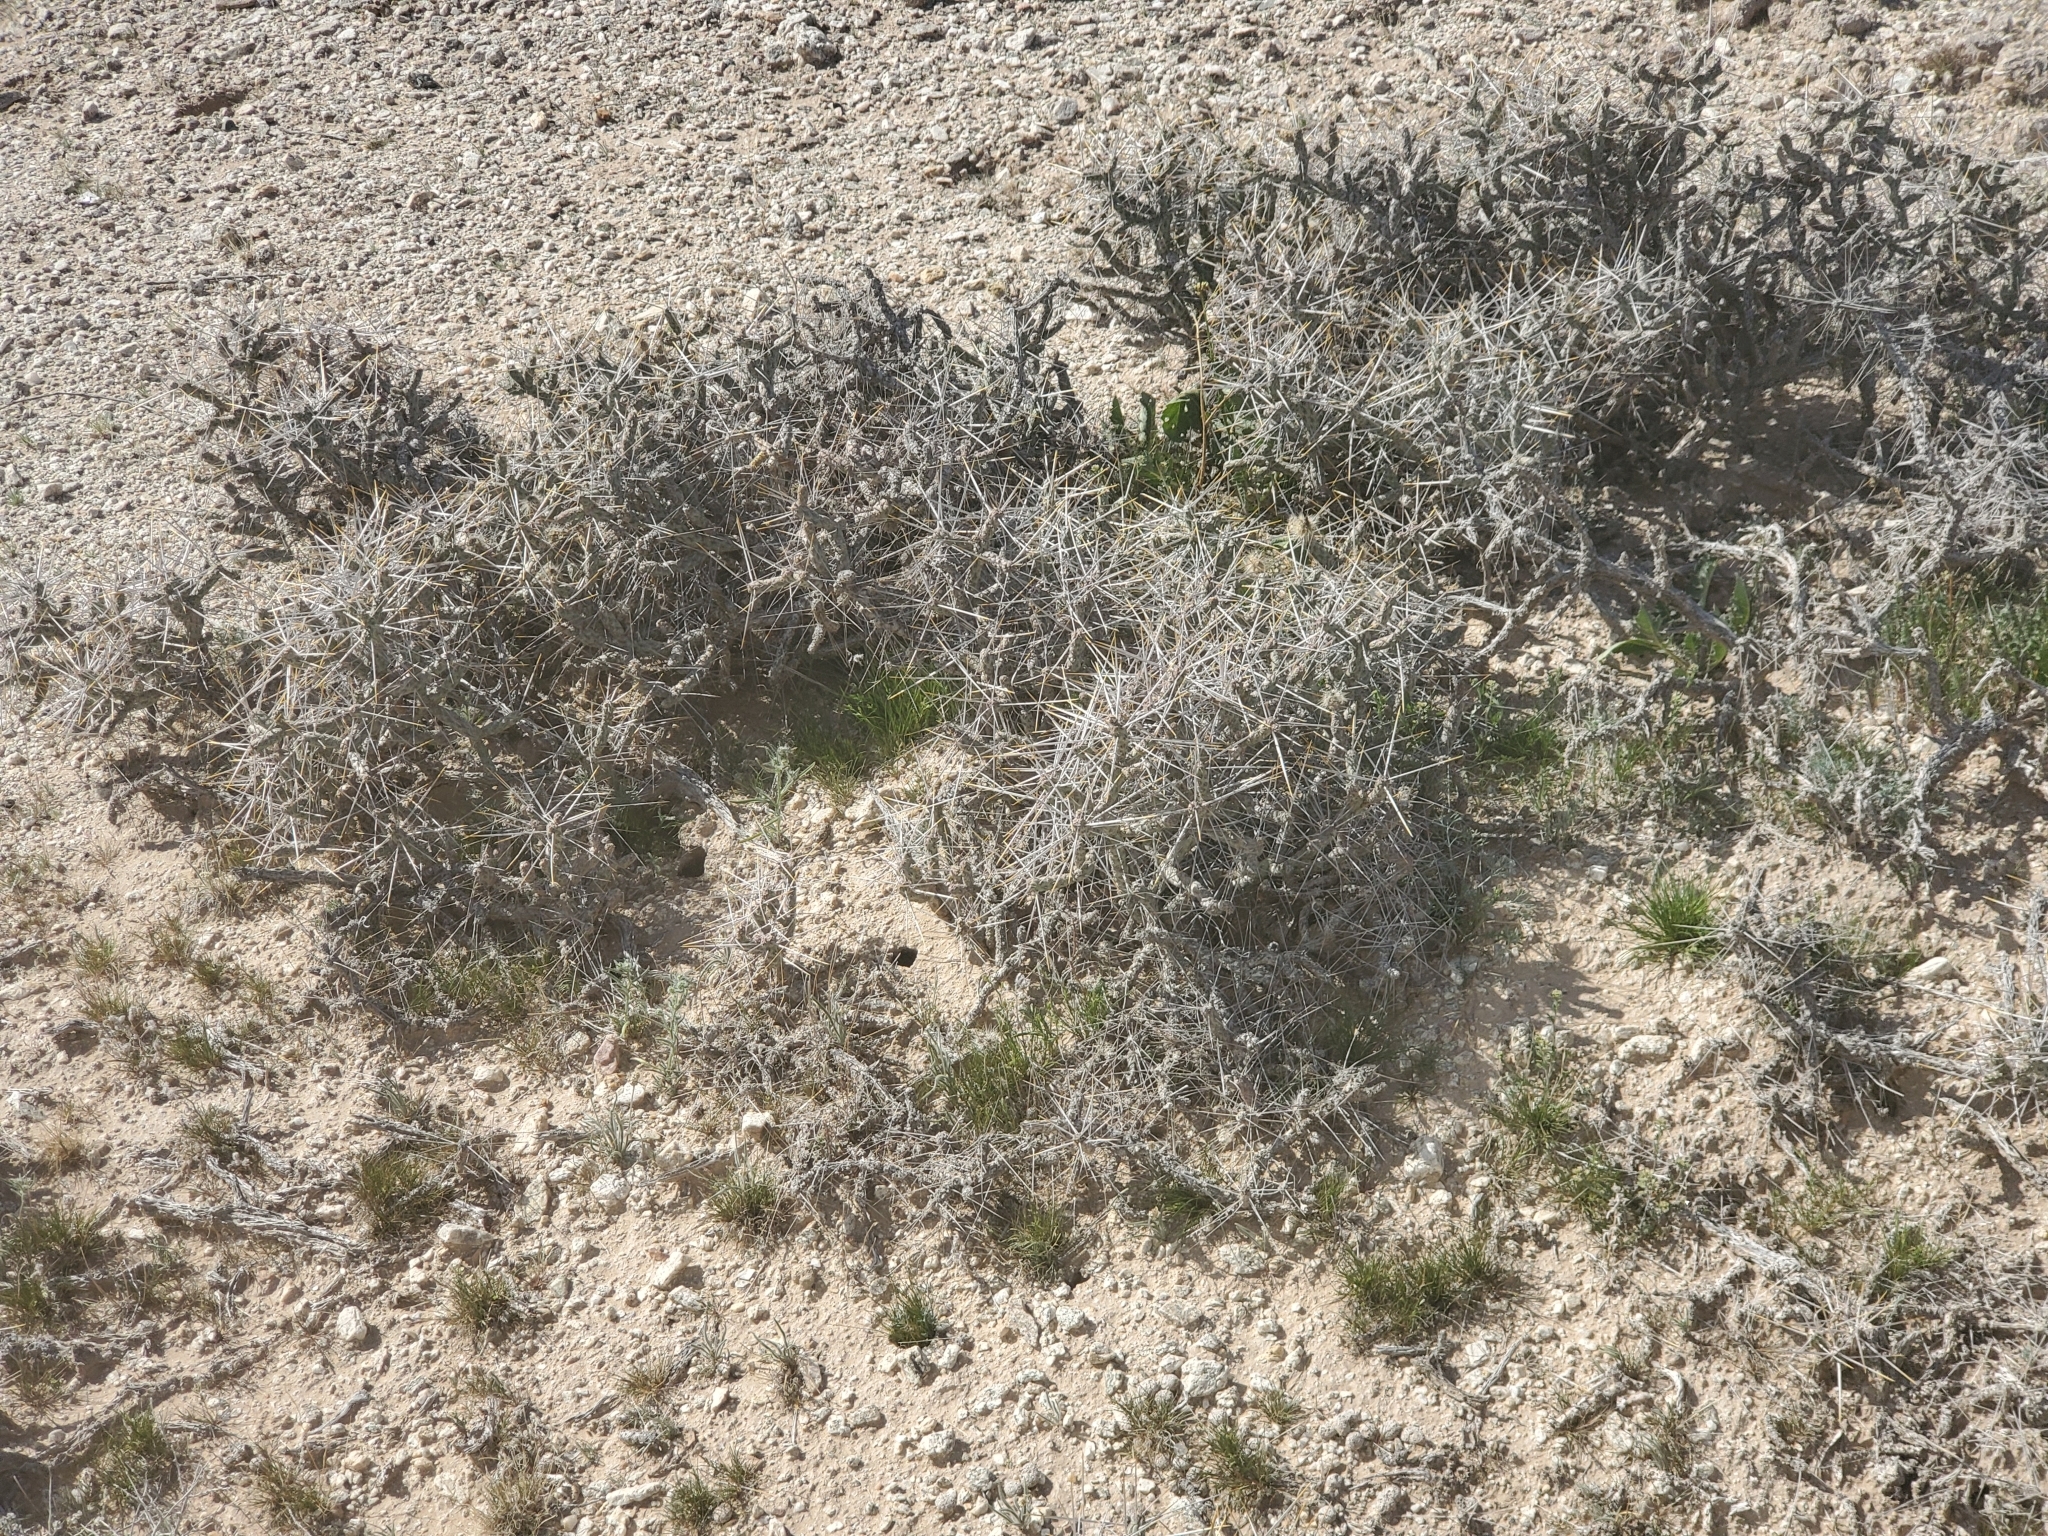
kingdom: Plantae
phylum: Tracheophyta
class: Magnoliopsida
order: Caryophyllales
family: Cactaceae
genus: Cylindropuntia
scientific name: Cylindropuntia ramosissima
